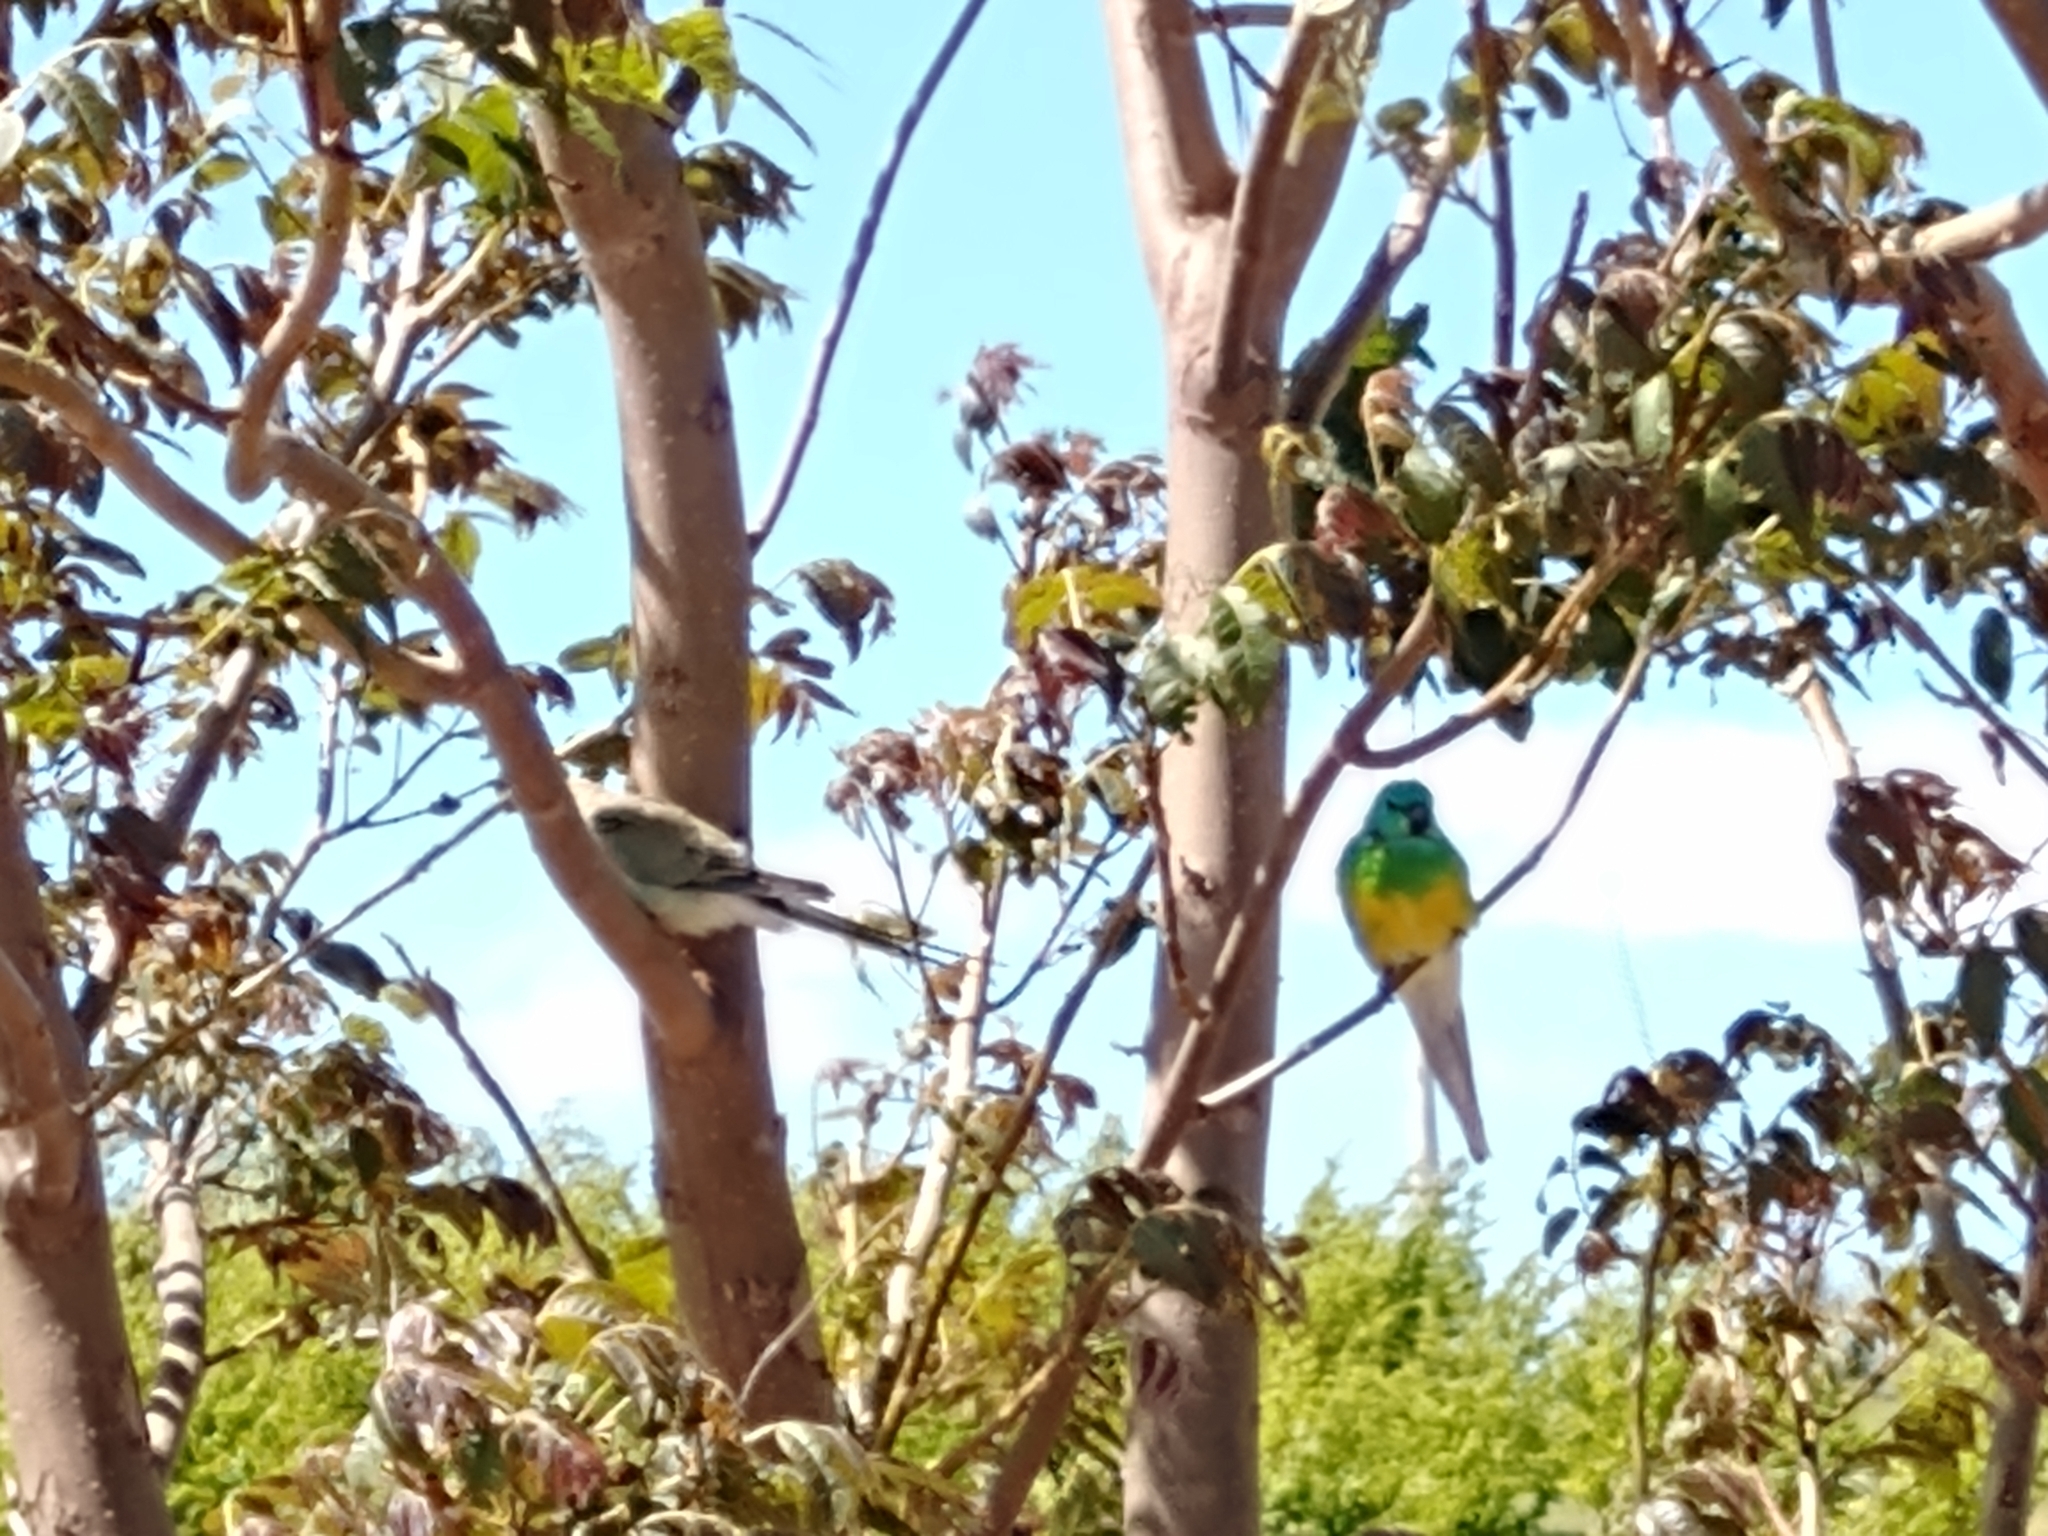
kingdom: Animalia
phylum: Chordata
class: Aves
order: Psittaciformes
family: Psittacidae
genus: Psephotus
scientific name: Psephotus haematonotus
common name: Red-rumped parrot
